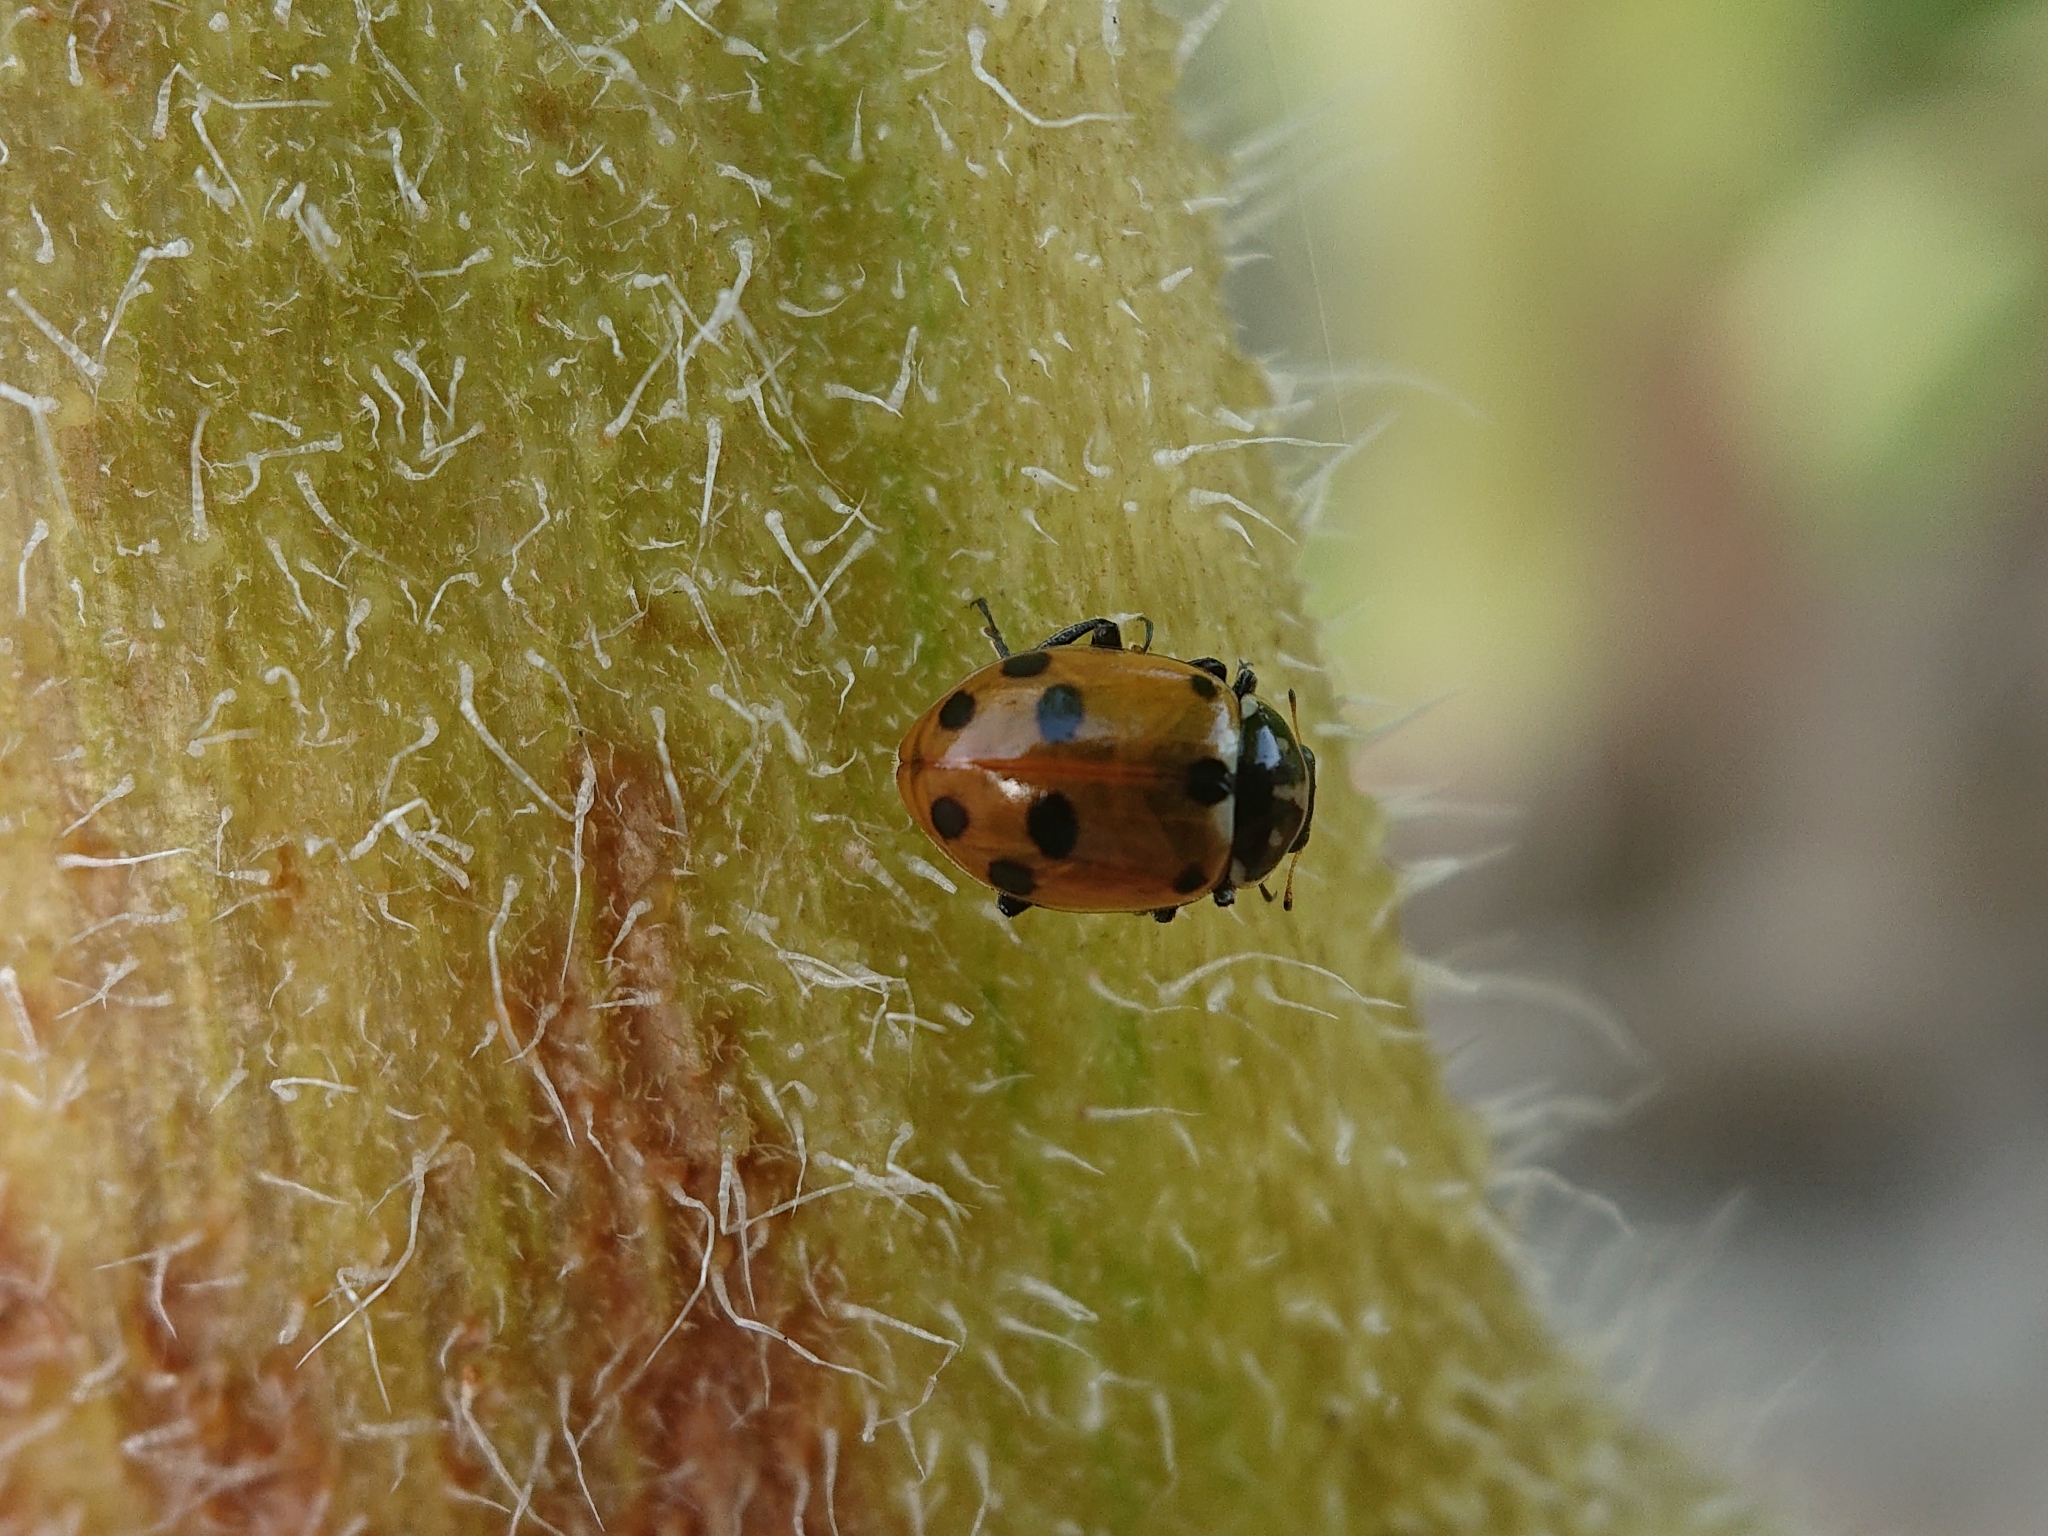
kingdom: Animalia
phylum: Arthropoda
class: Insecta
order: Coleoptera
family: Coccinellidae
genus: Hippodamia
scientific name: Hippodamia variegata
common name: Ladybird beetle
